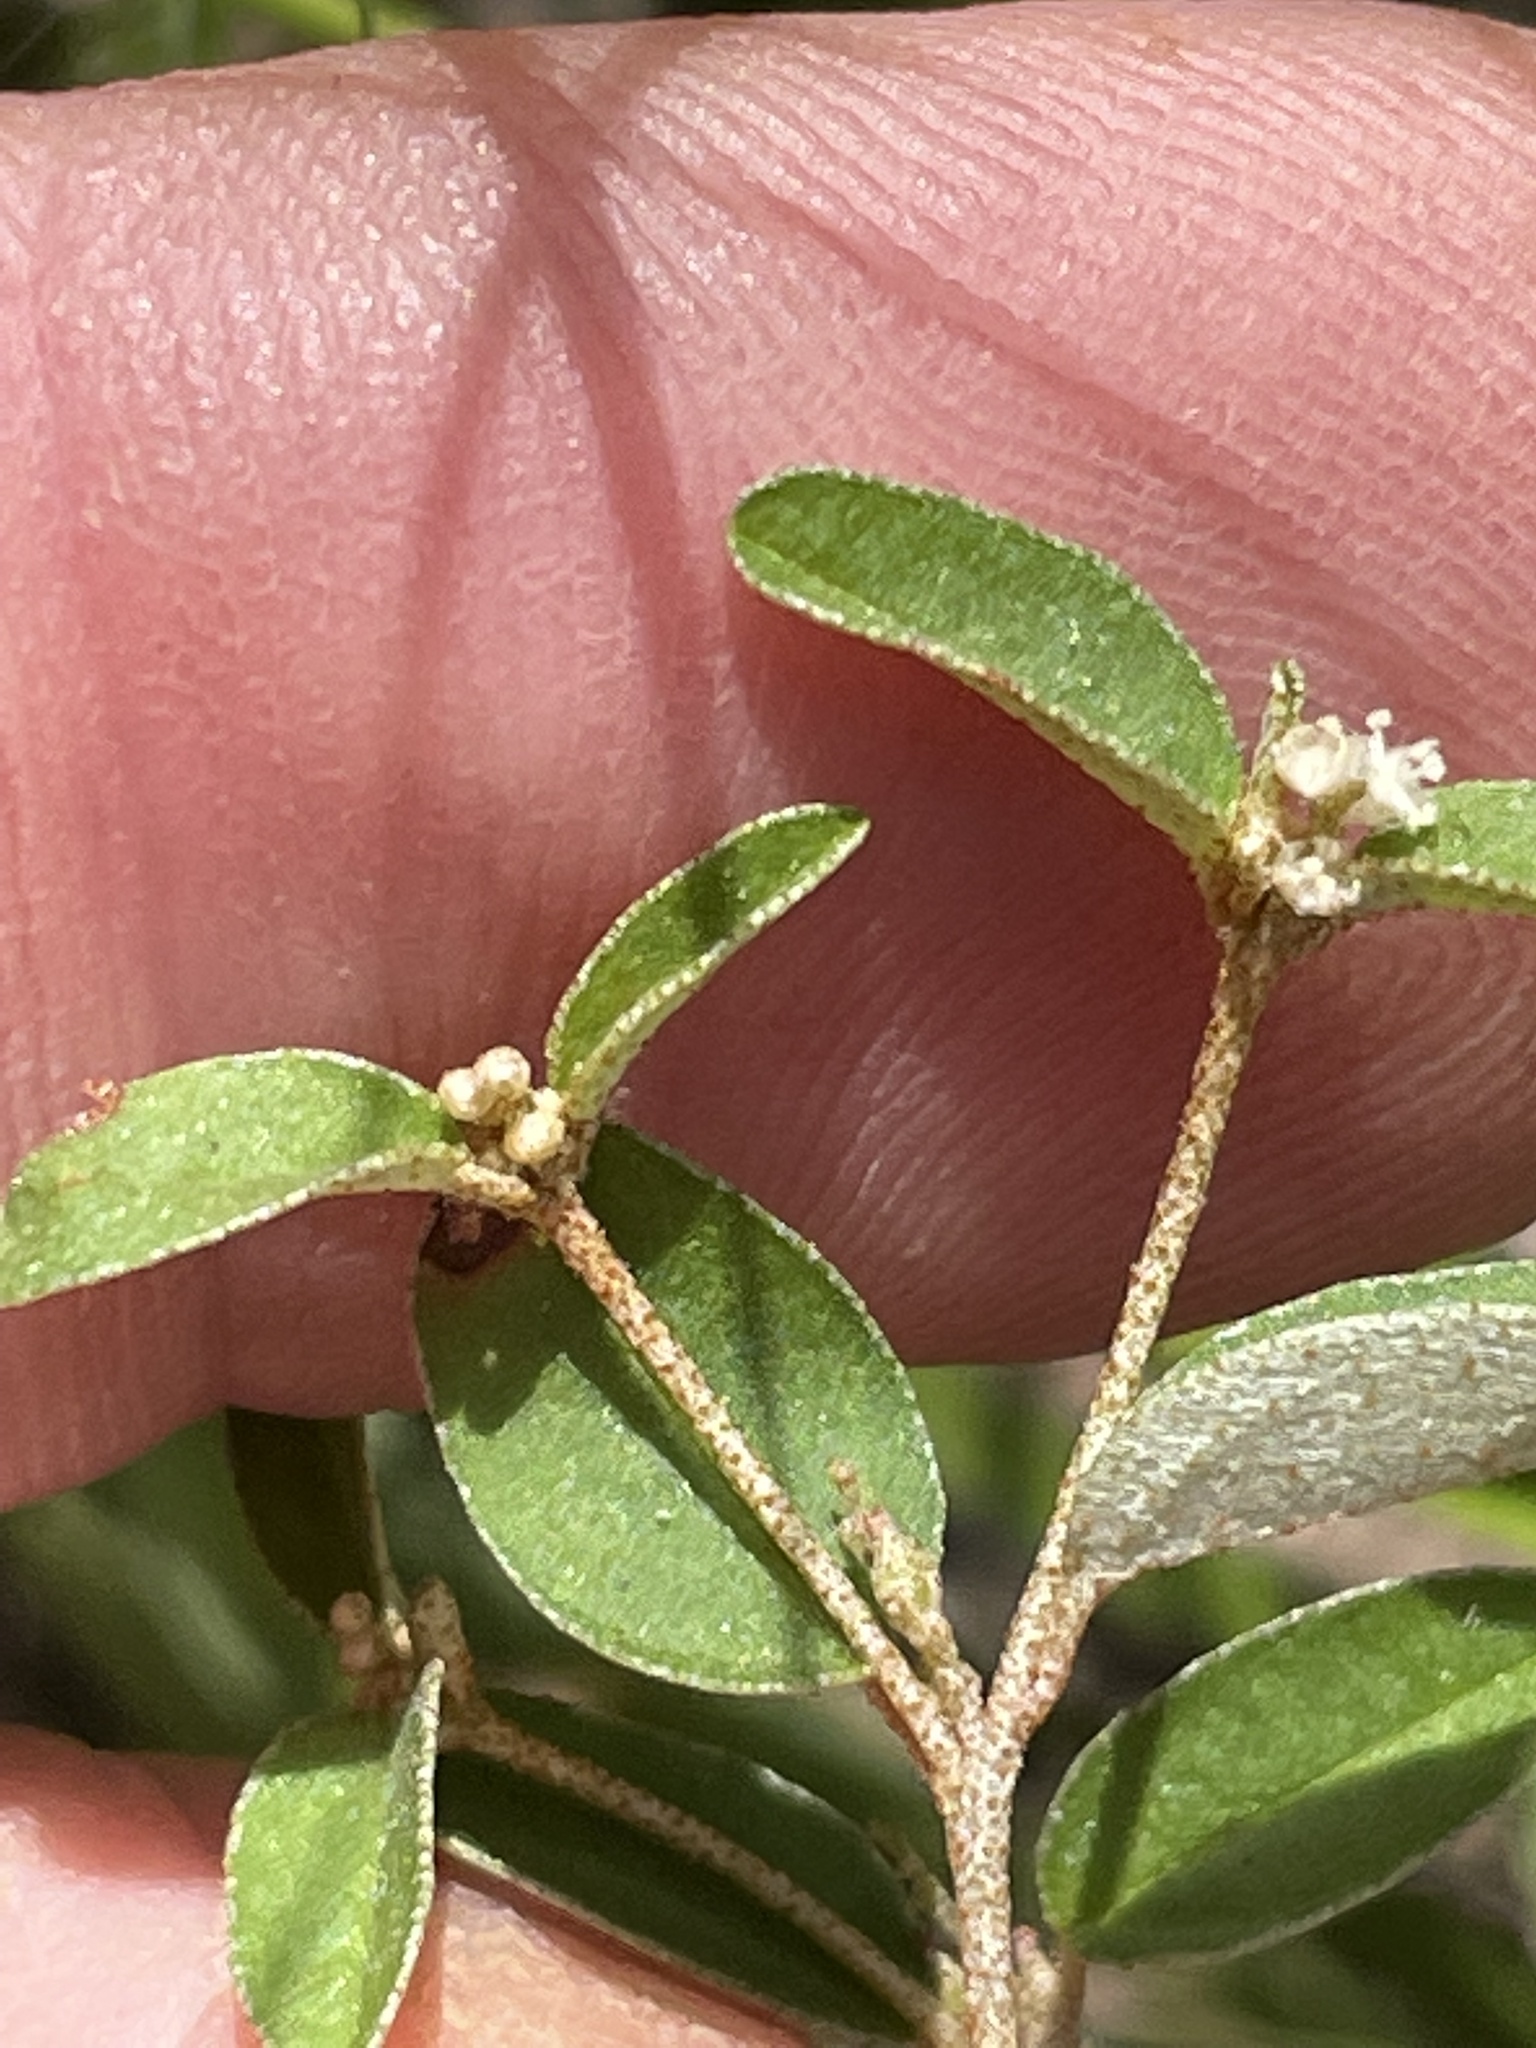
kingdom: Plantae
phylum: Tracheophyta
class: Magnoliopsida
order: Malpighiales
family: Euphorbiaceae
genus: Croton
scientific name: Croton michauxii
